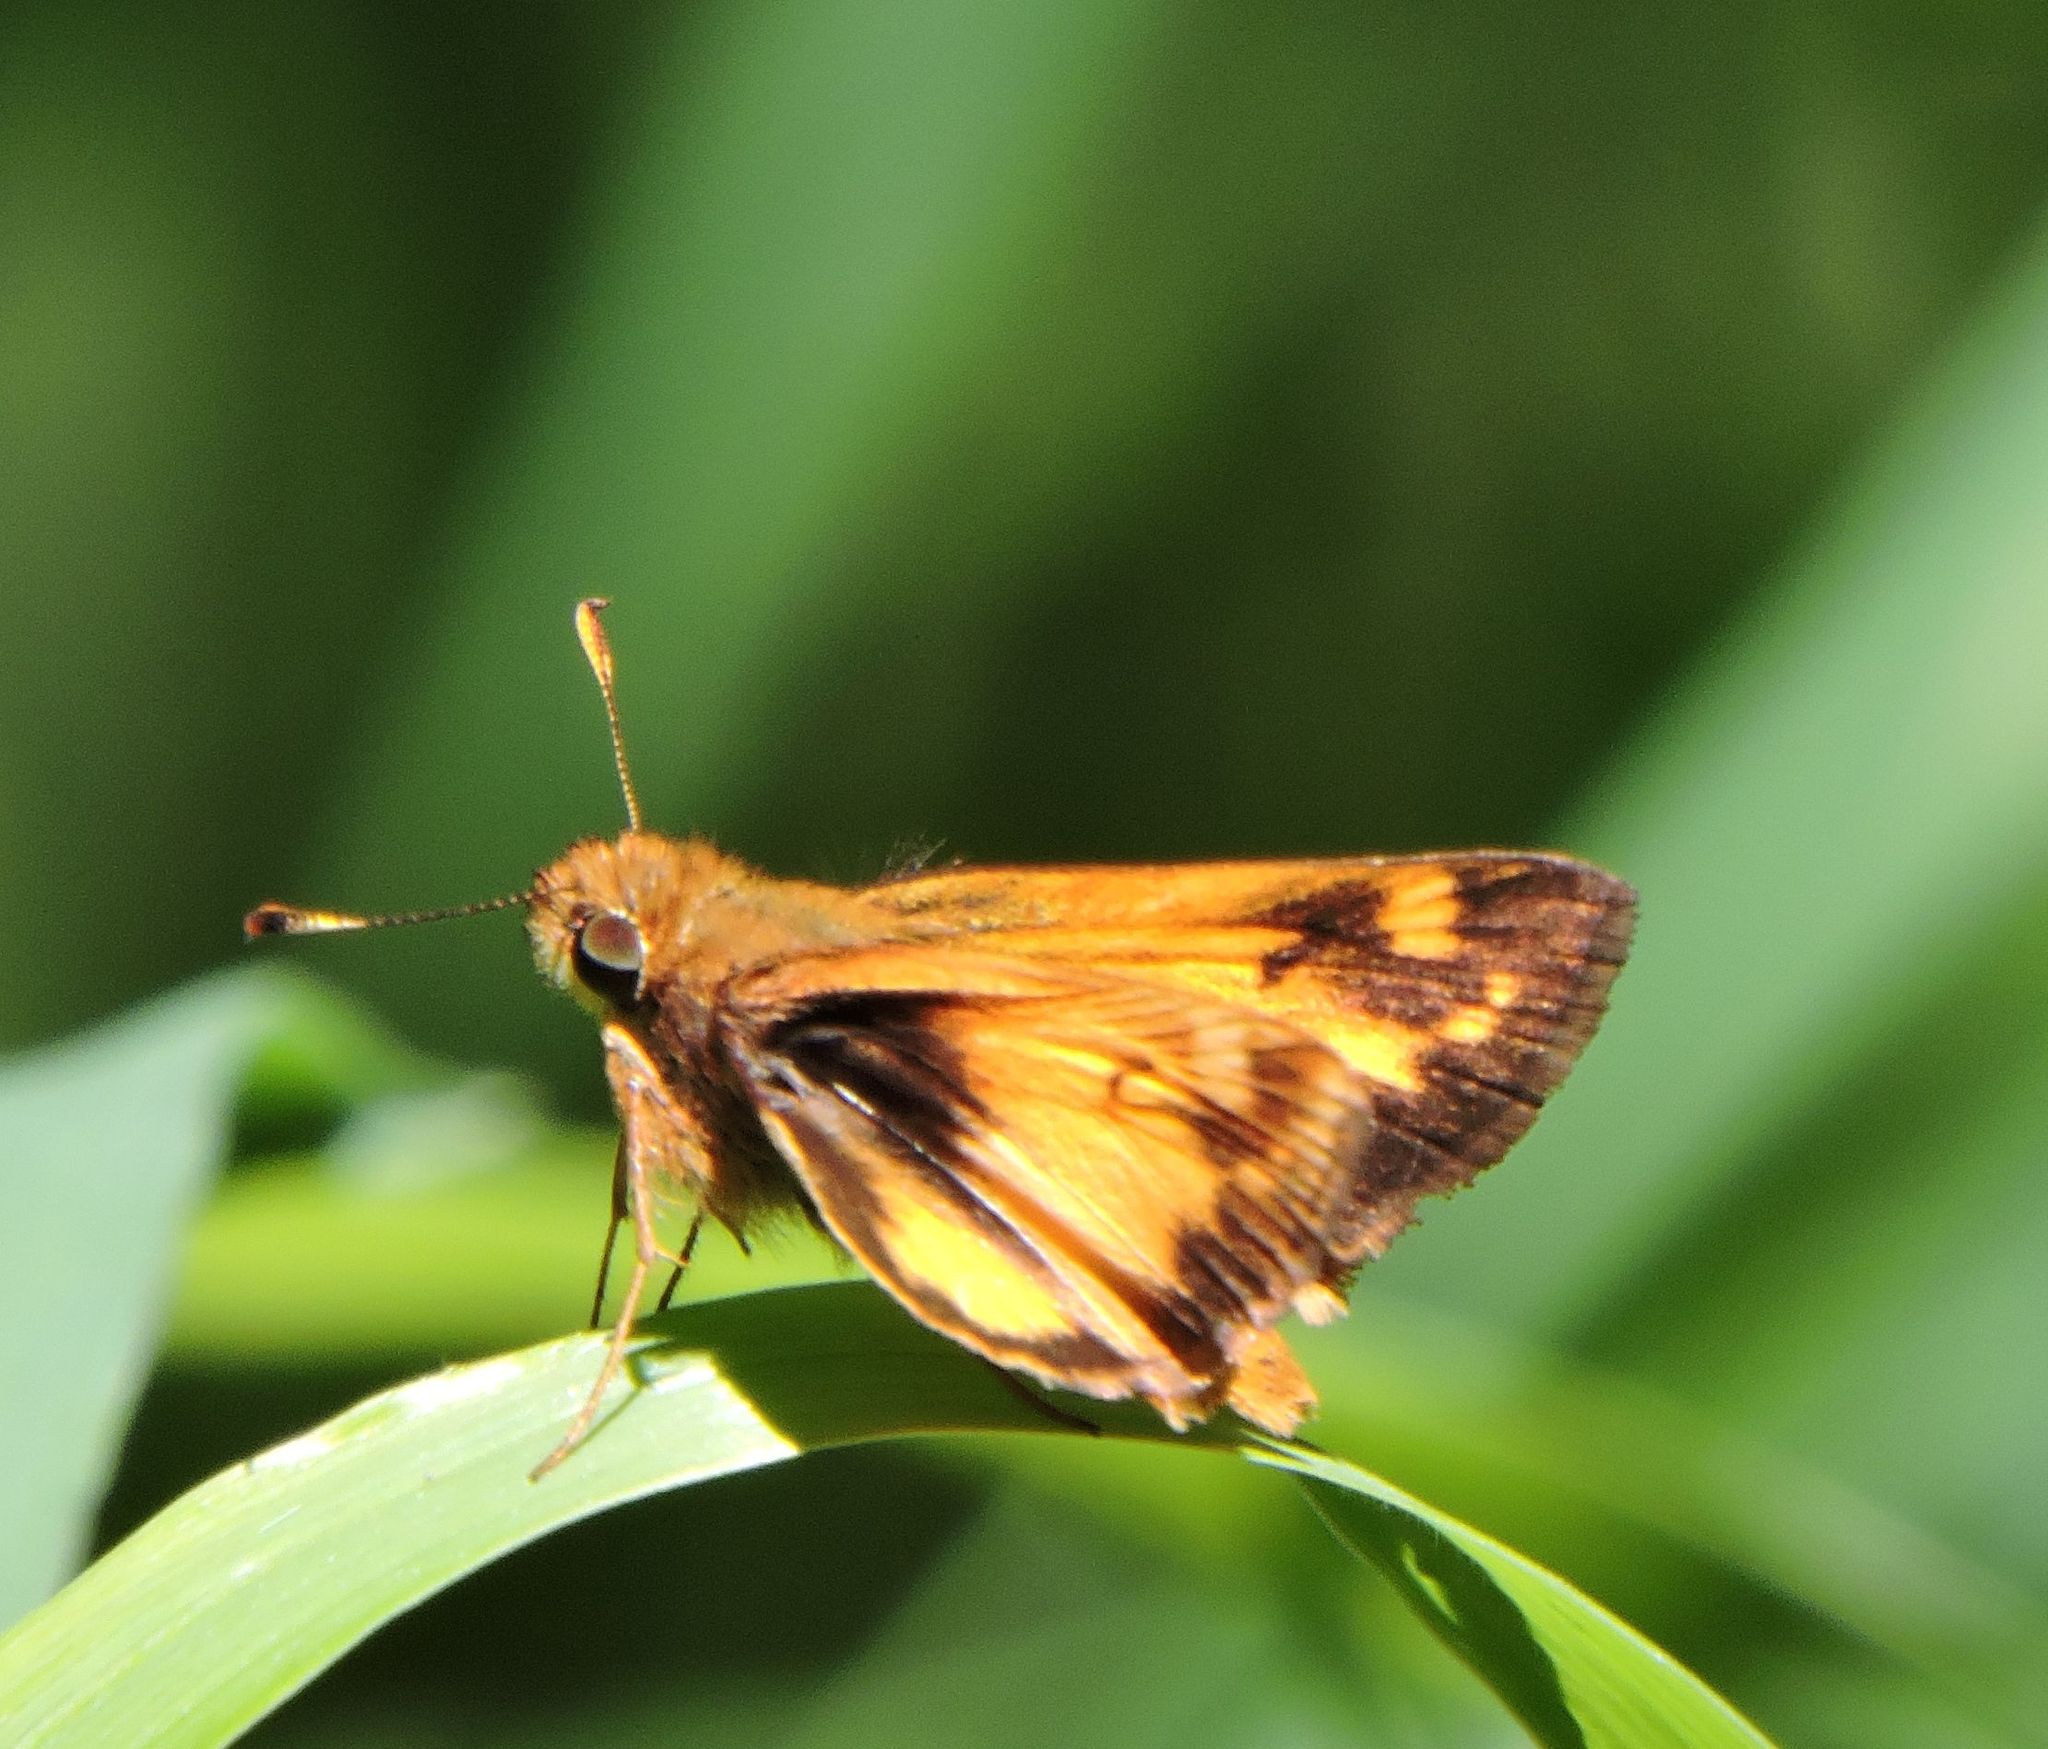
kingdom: Animalia
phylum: Arthropoda
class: Insecta
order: Lepidoptera
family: Hesperiidae
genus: Lon
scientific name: Lon zabulon
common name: Zabulon skipper
